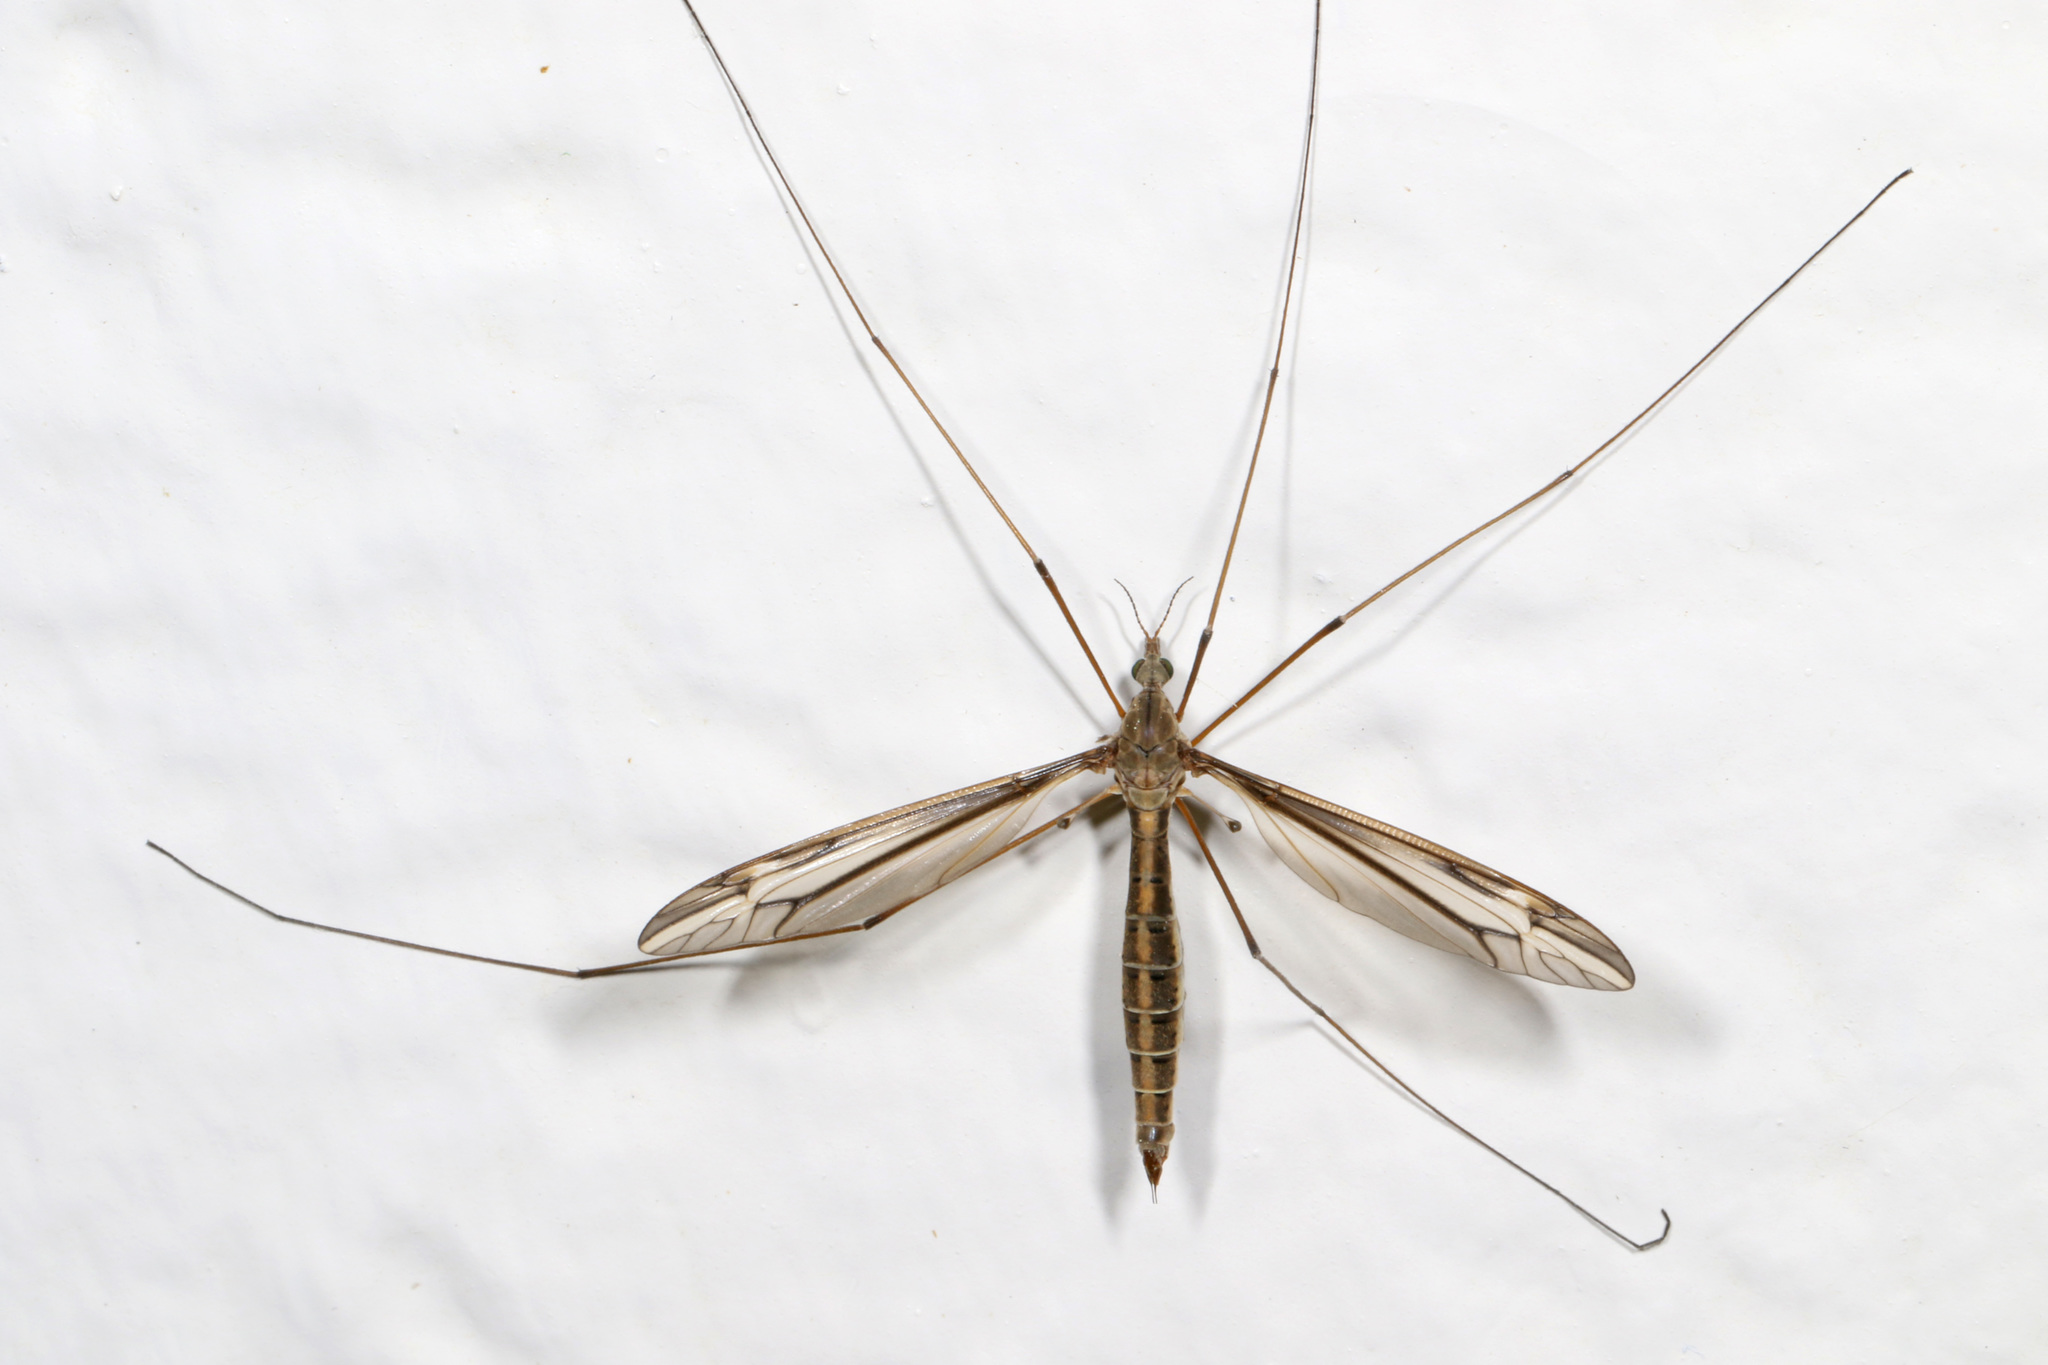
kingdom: Animalia
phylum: Arthropoda
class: Insecta
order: Diptera
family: Tipulidae
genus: Tipula
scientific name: Tipula furca
